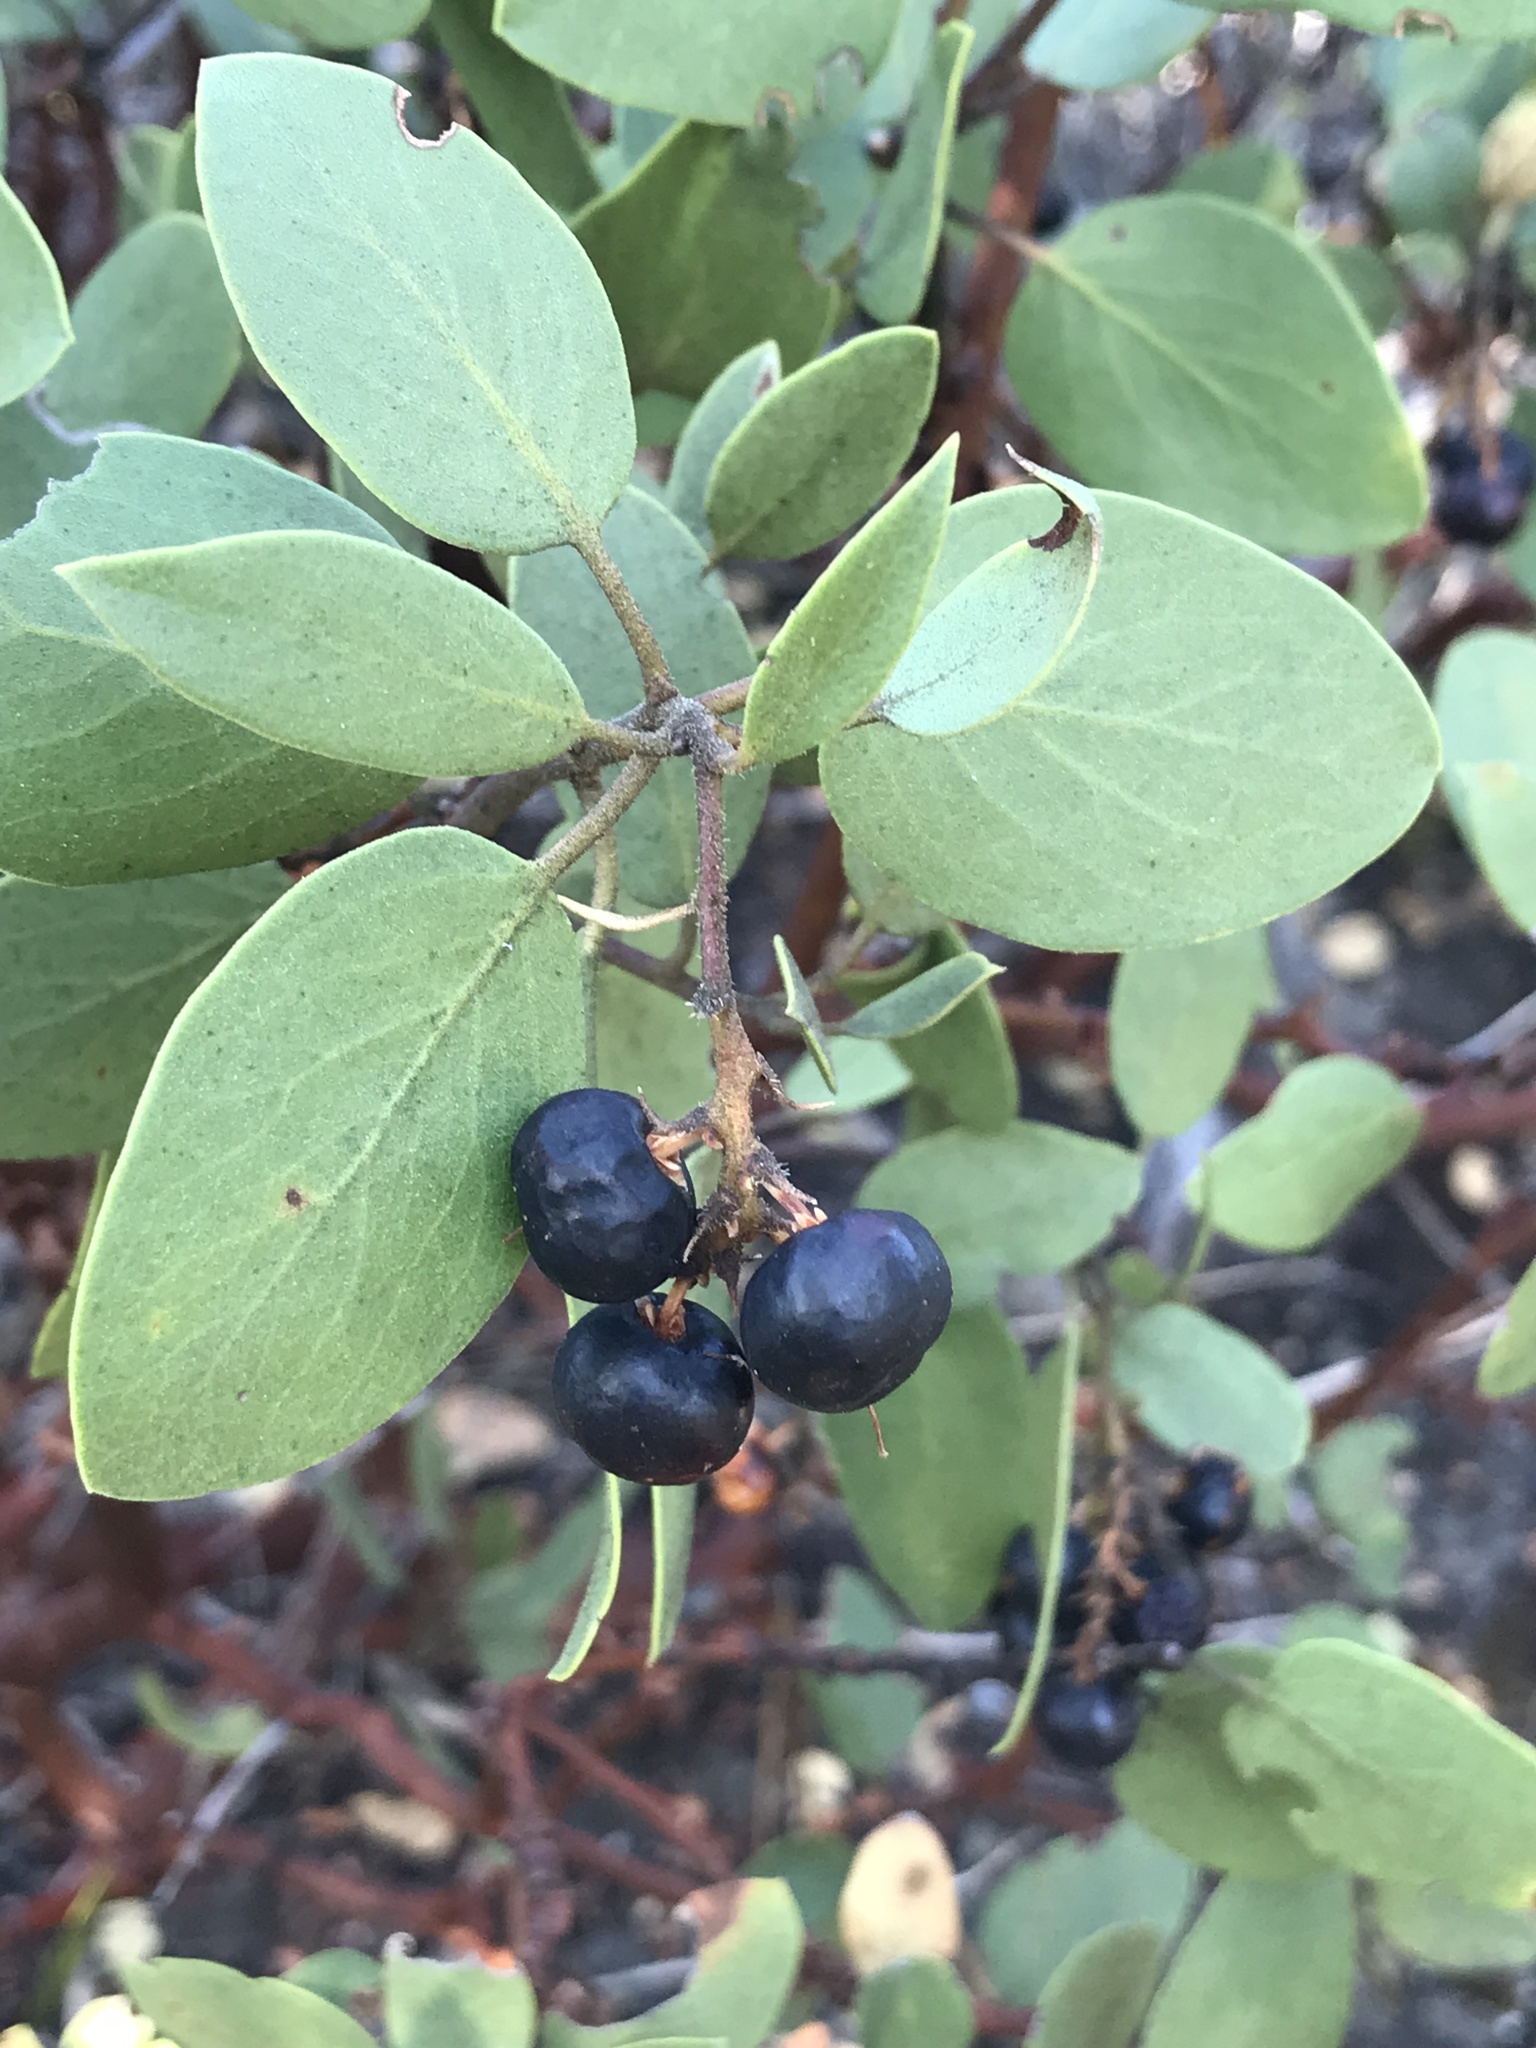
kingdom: Plantae
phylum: Tracheophyta
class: Magnoliopsida
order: Ericales
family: Ericaceae
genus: Arctostaphylos
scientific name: Arctostaphylos patula
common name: Green-leaf manzanita
